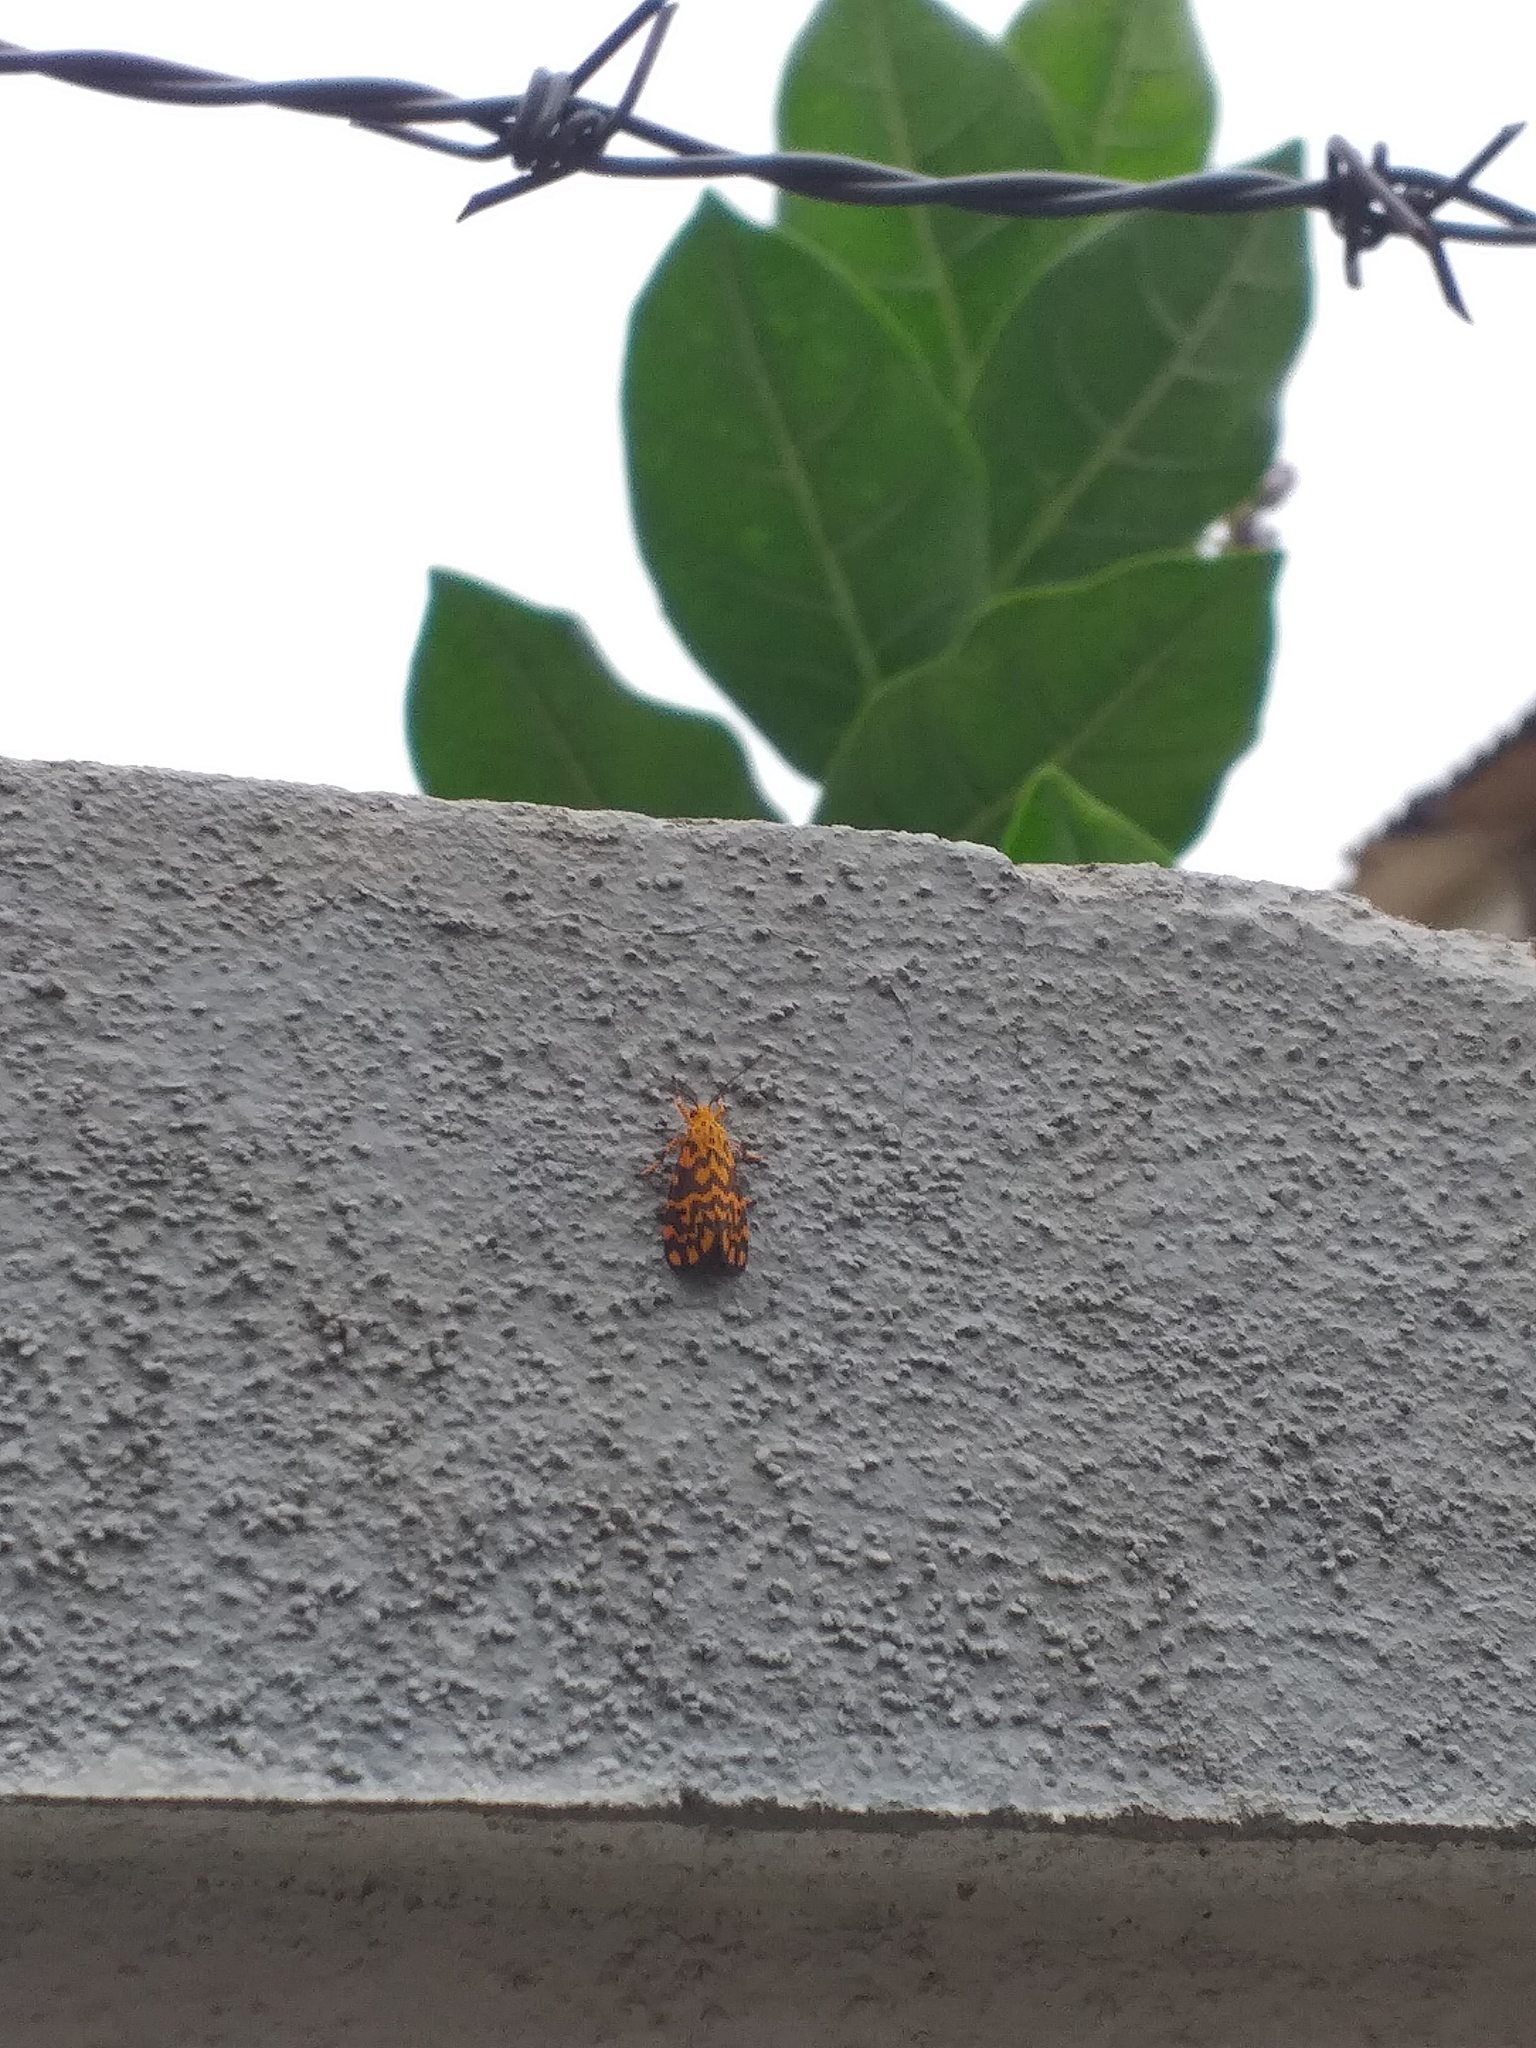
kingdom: Animalia
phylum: Arthropoda
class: Insecta
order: Lepidoptera
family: Erebidae
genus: Nepita
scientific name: Nepita conferta
